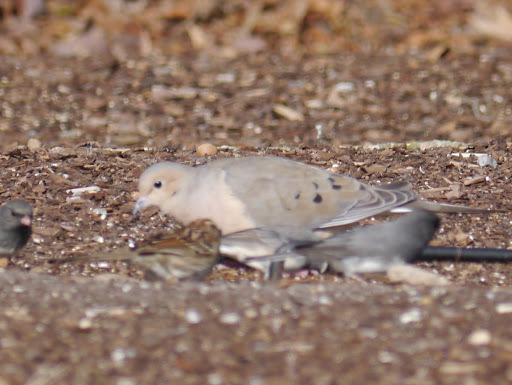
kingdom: Animalia
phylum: Chordata
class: Aves
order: Columbiformes
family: Columbidae
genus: Zenaida
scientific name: Zenaida macroura
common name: Mourning dove
